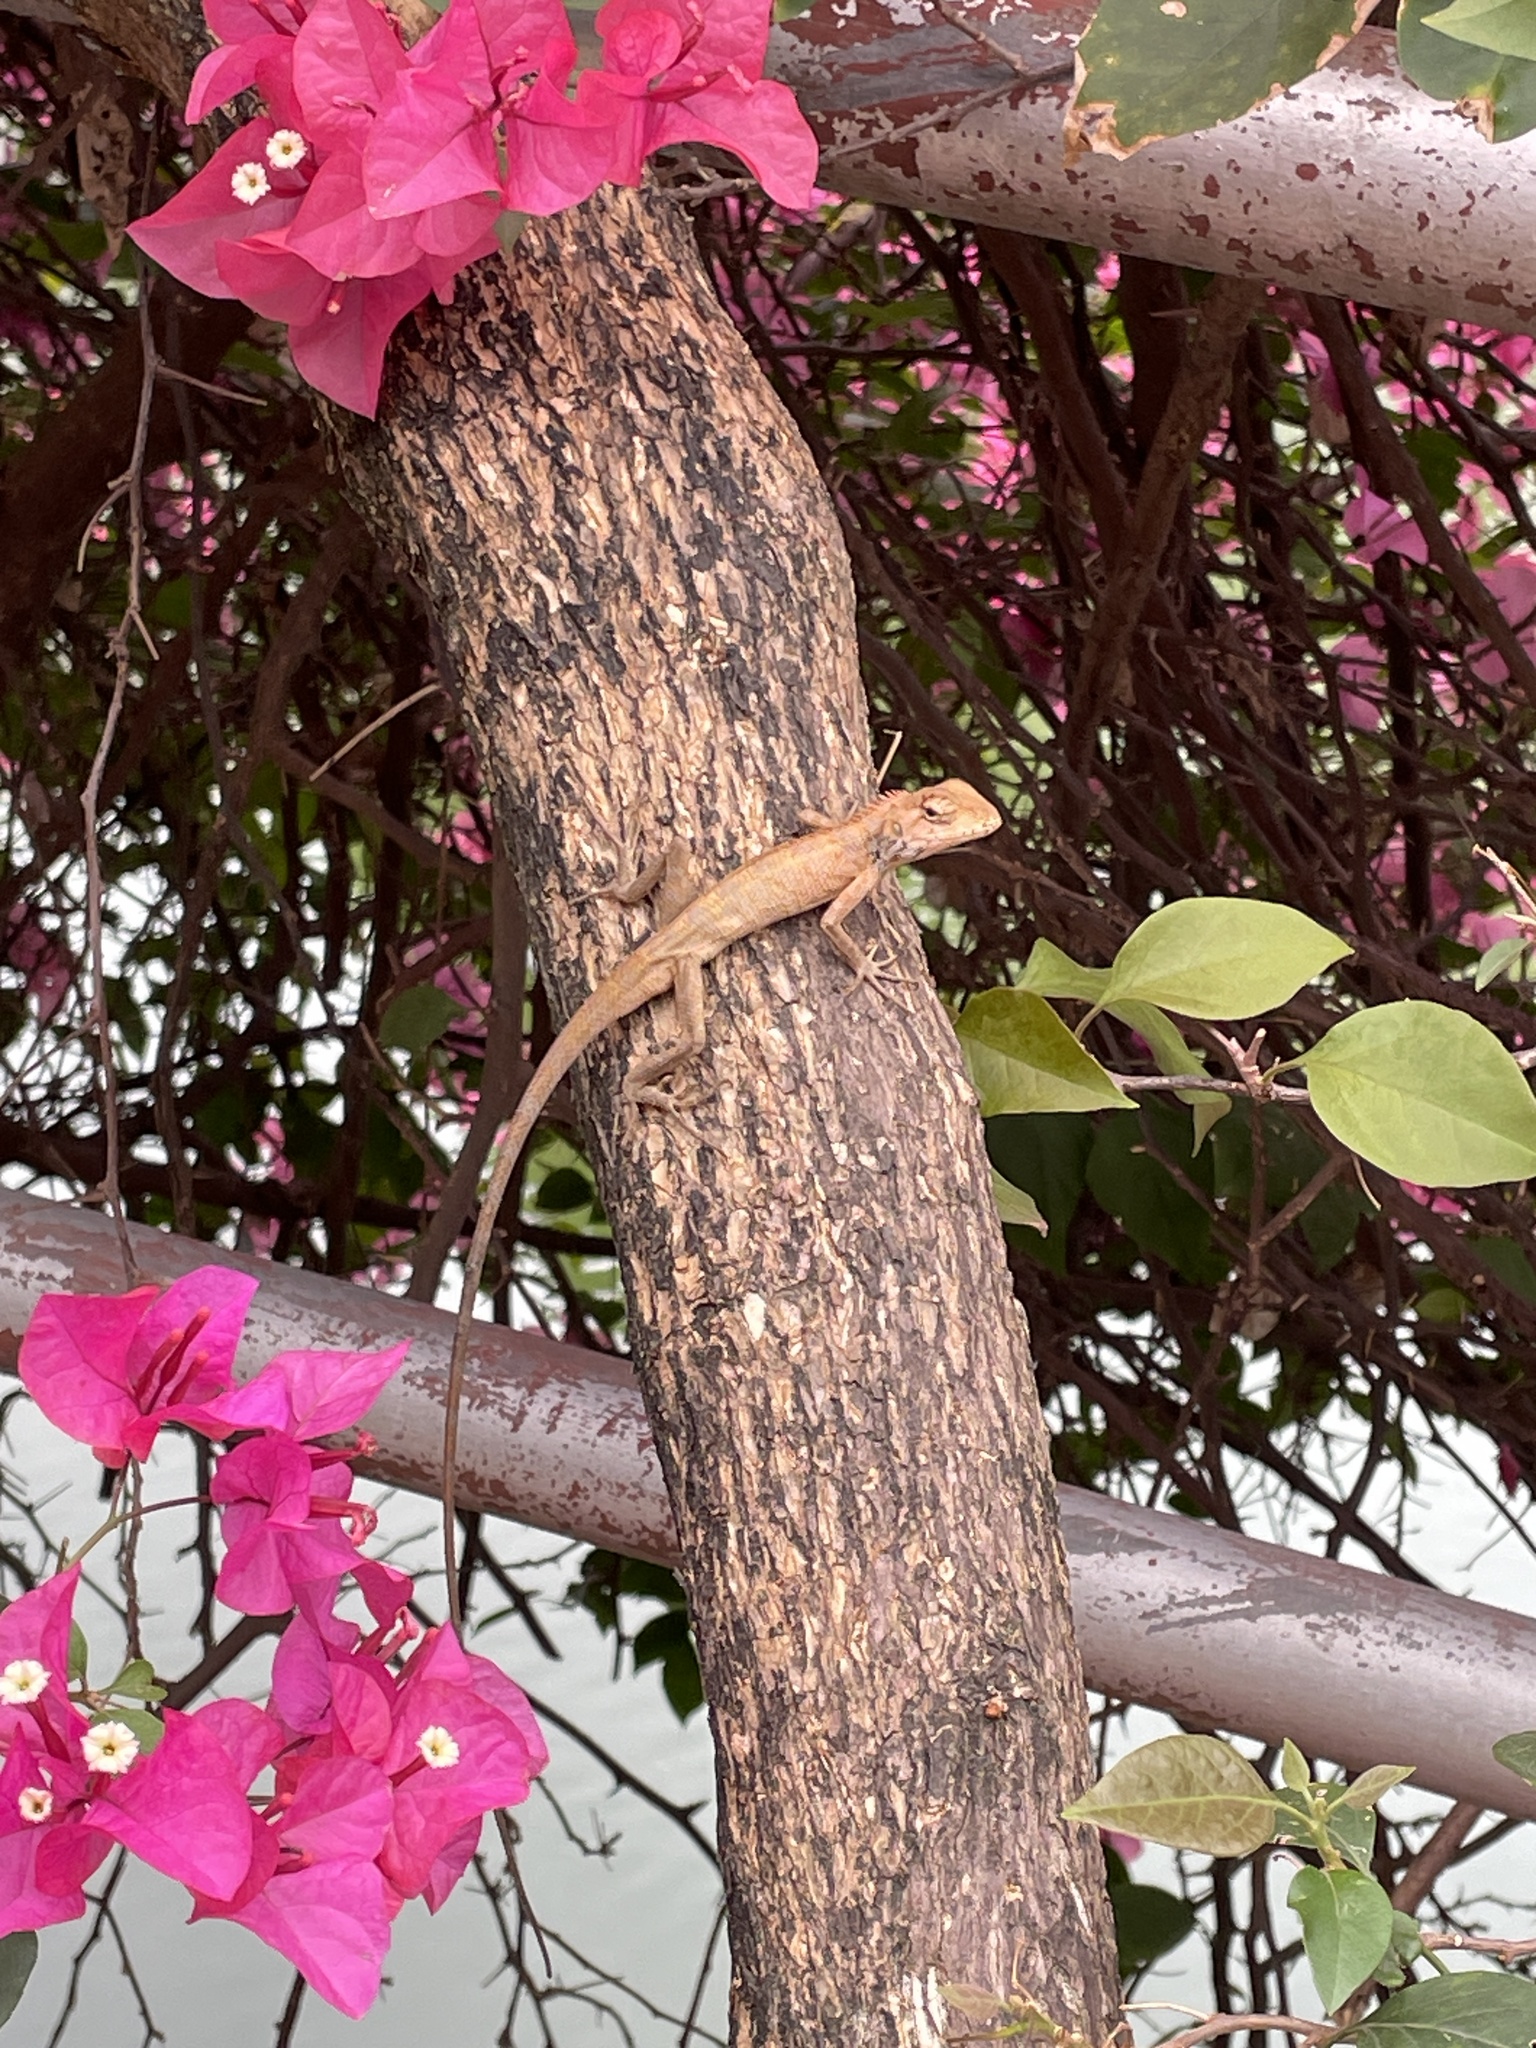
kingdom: Animalia
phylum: Chordata
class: Squamata
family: Agamidae
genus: Calotes
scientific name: Calotes versicolor
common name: Oriental garden lizard
